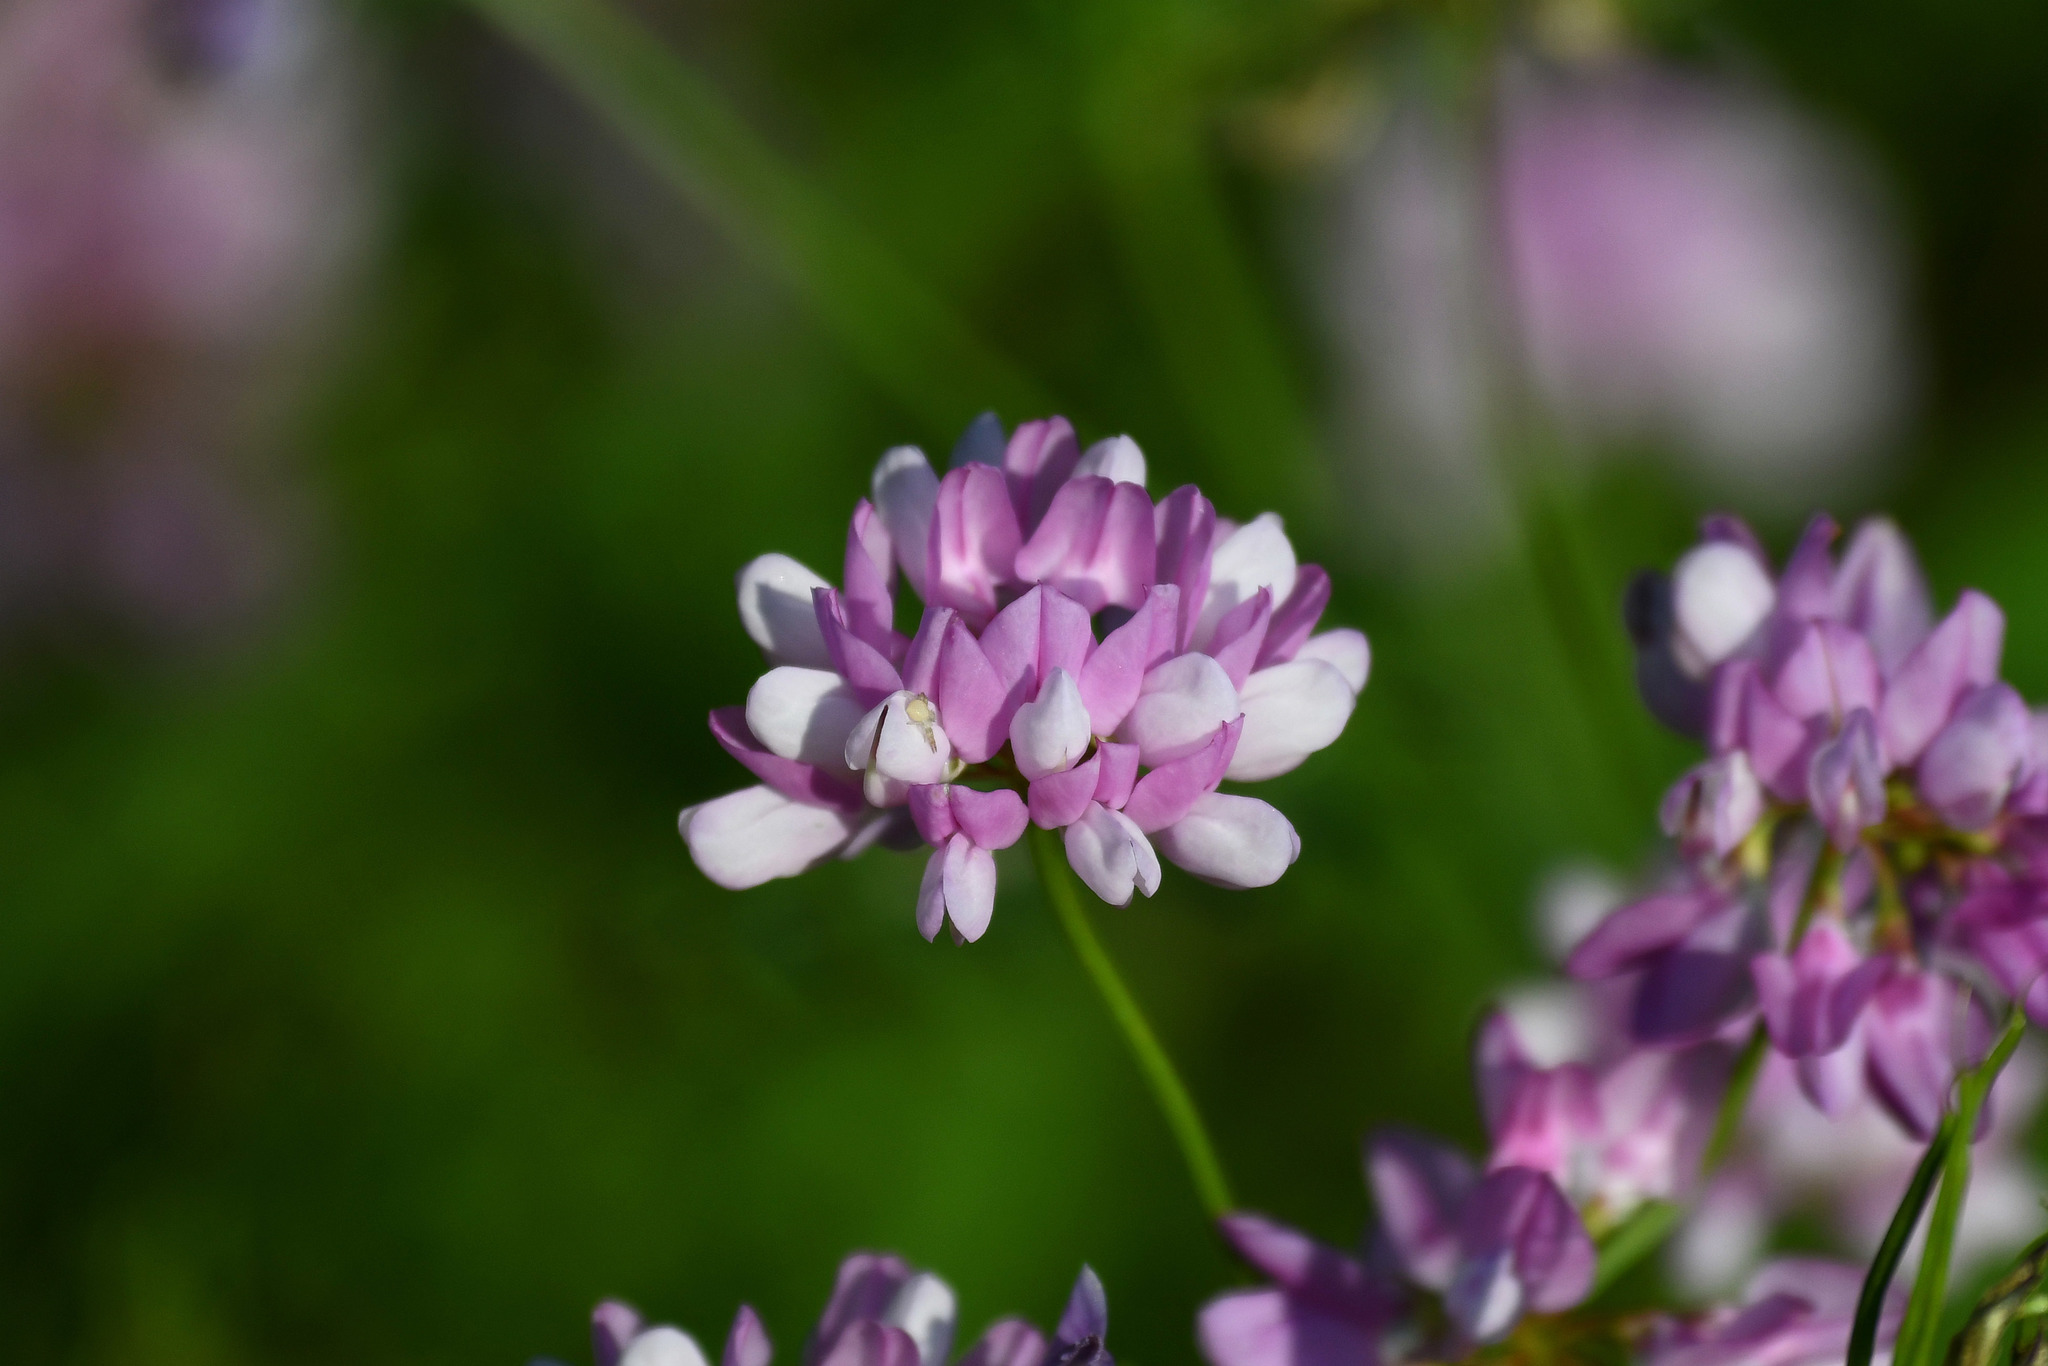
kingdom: Plantae
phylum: Tracheophyta
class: Magnoliopsida
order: Fabales
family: Fabaceae
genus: Coronilla
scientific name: Coronilla varia
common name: Crownvetch
